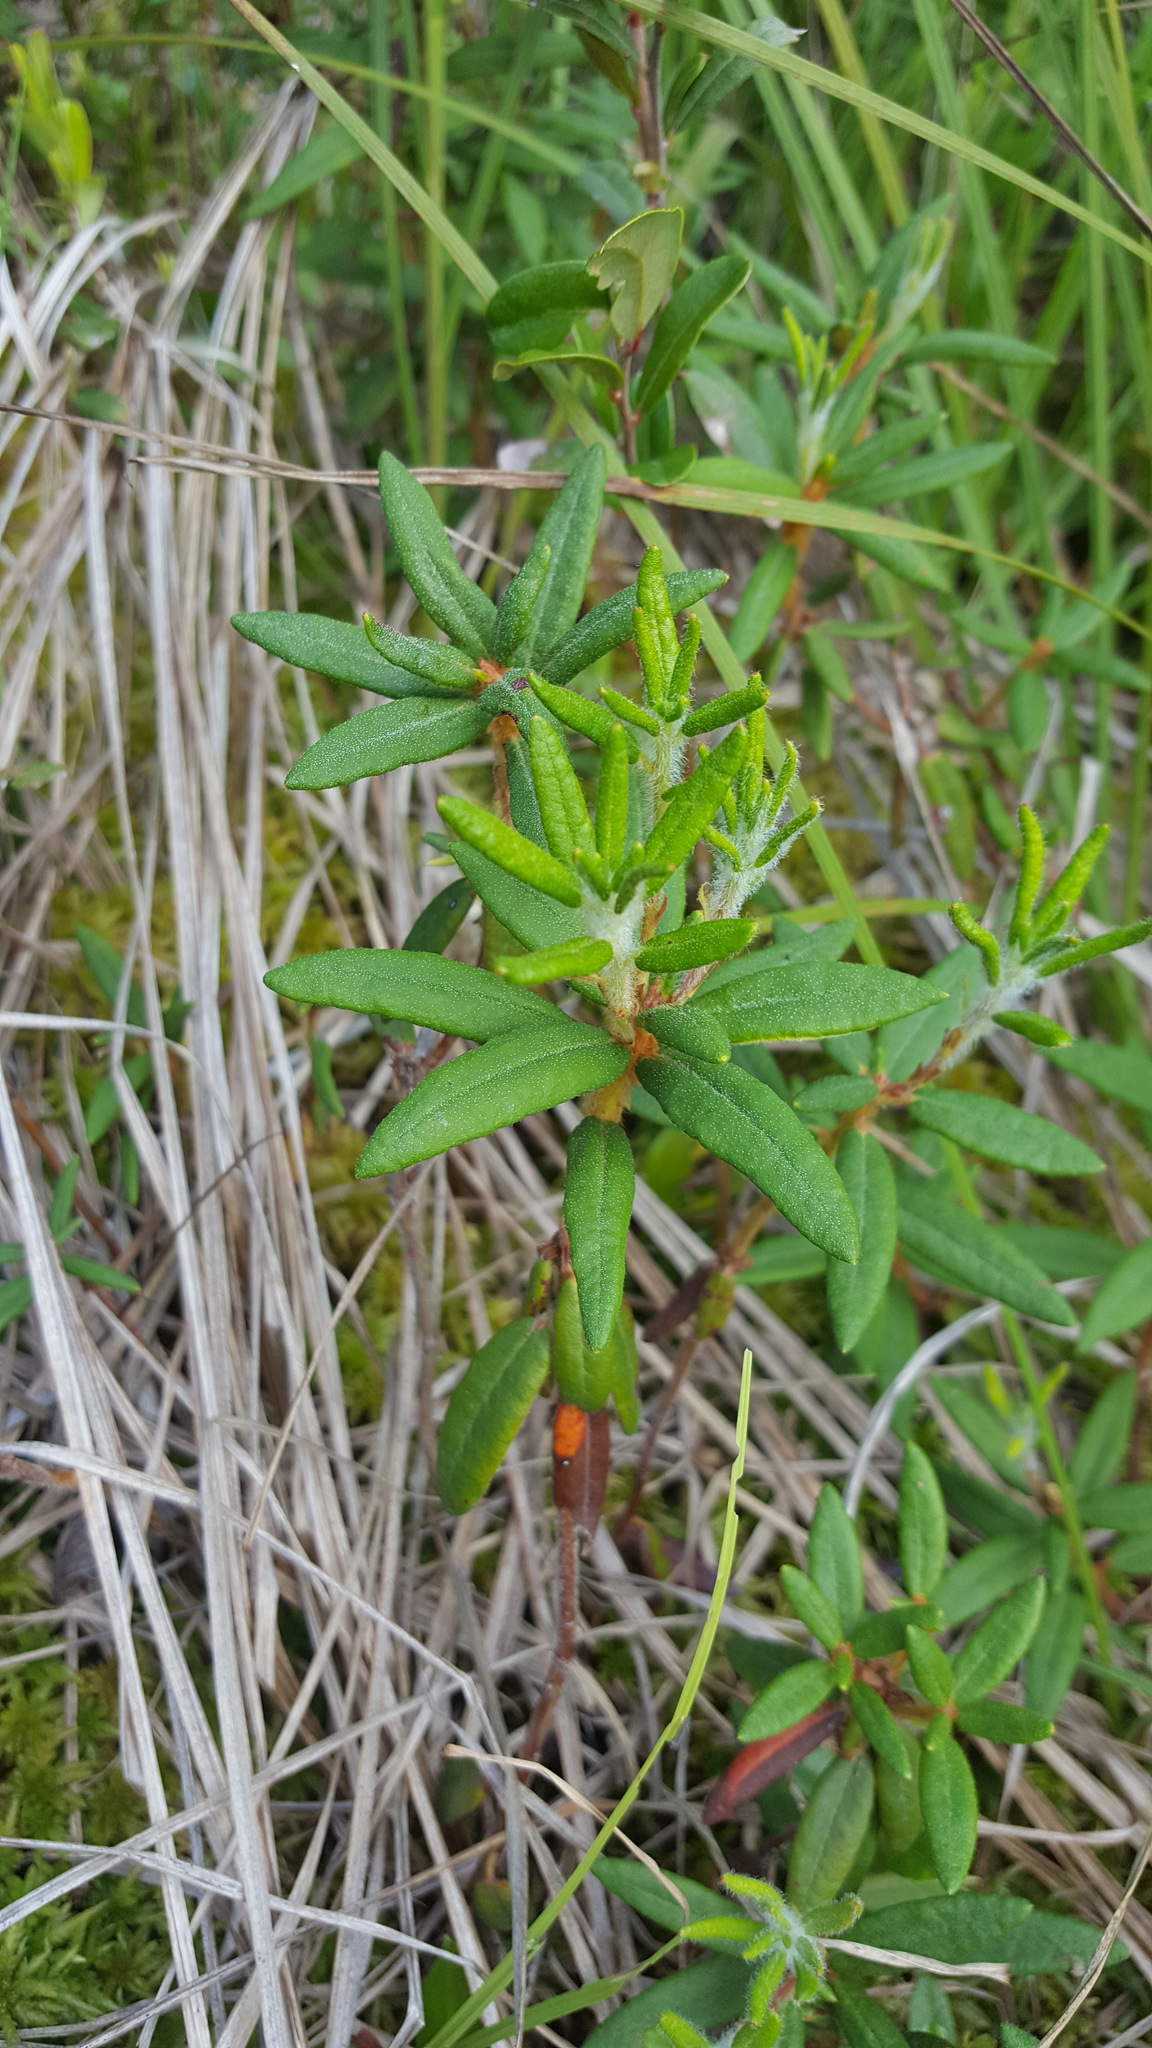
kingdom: Plantae
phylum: Tracheophyta
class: Magnoliopsida
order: Ericales
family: Ericaceae
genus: Rhododendron
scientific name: Rhododendron groenlandicum
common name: Bog labrador tea
